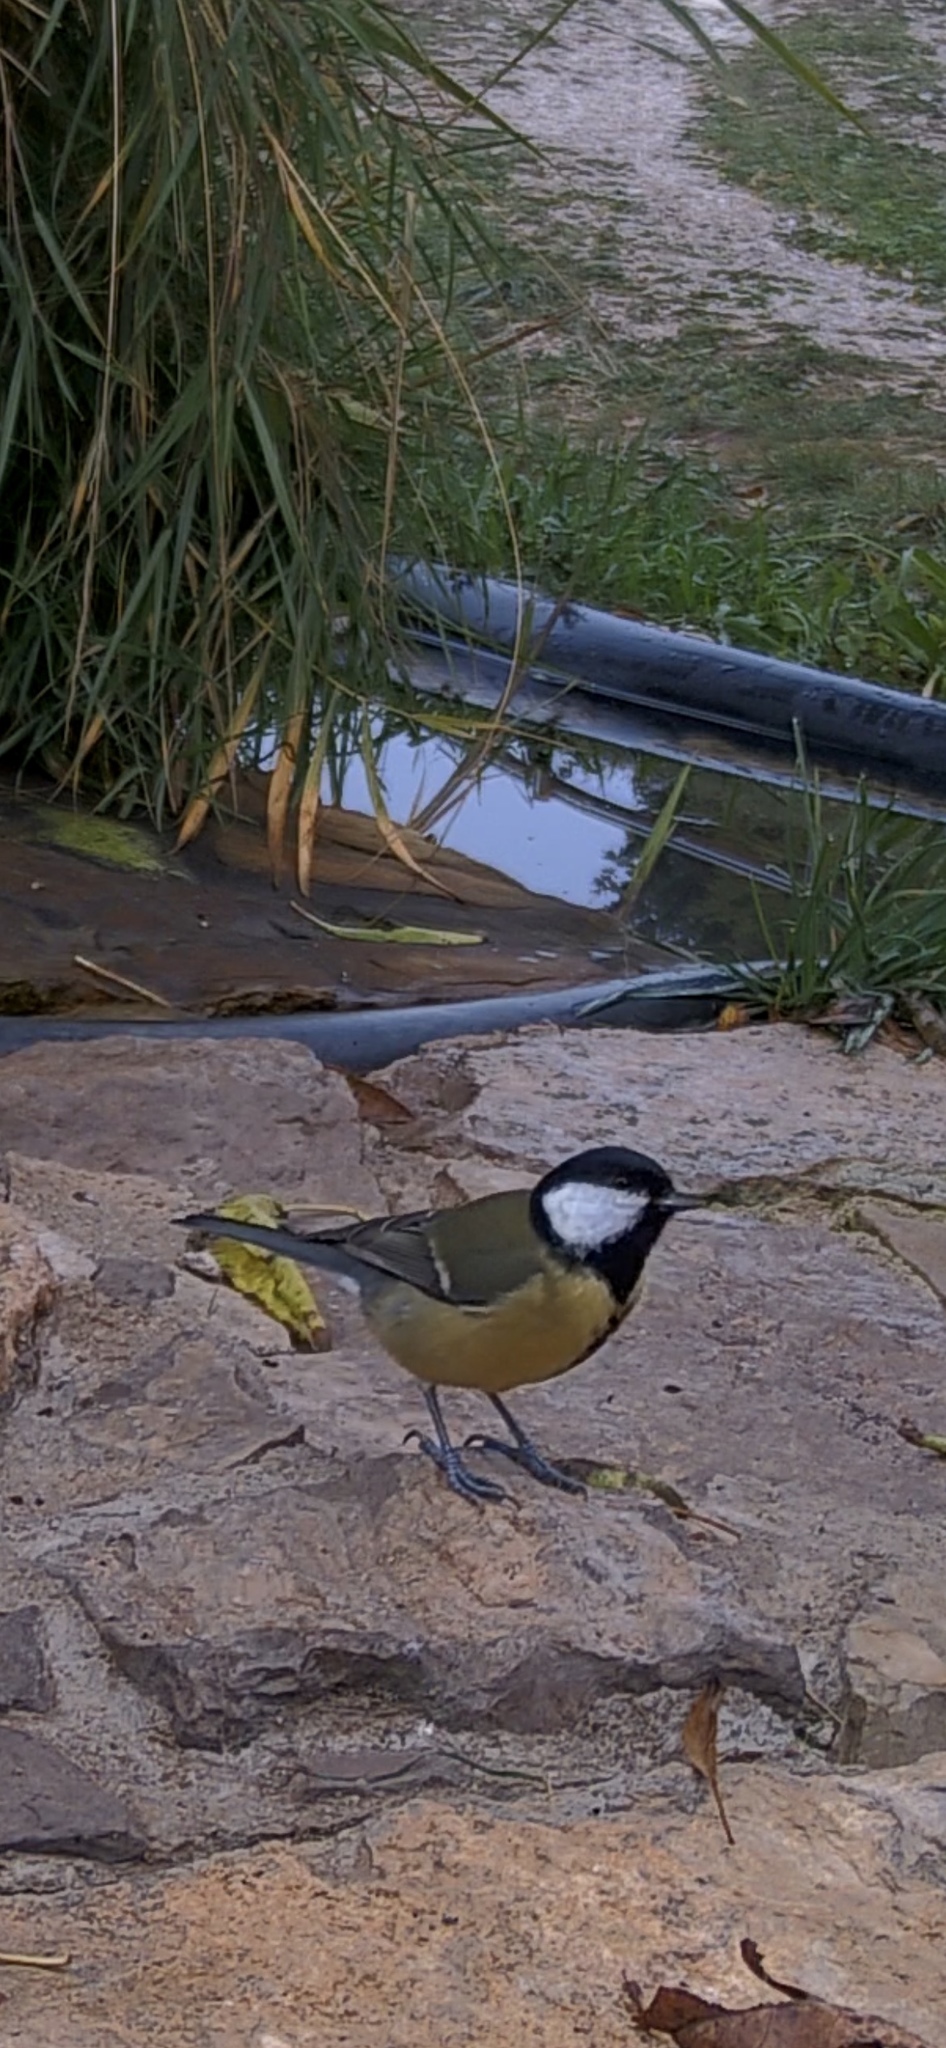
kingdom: Animalia
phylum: Chordata
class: Aves
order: Passeriformes
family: Paridae
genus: Parus
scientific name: Parus major
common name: Great tit
